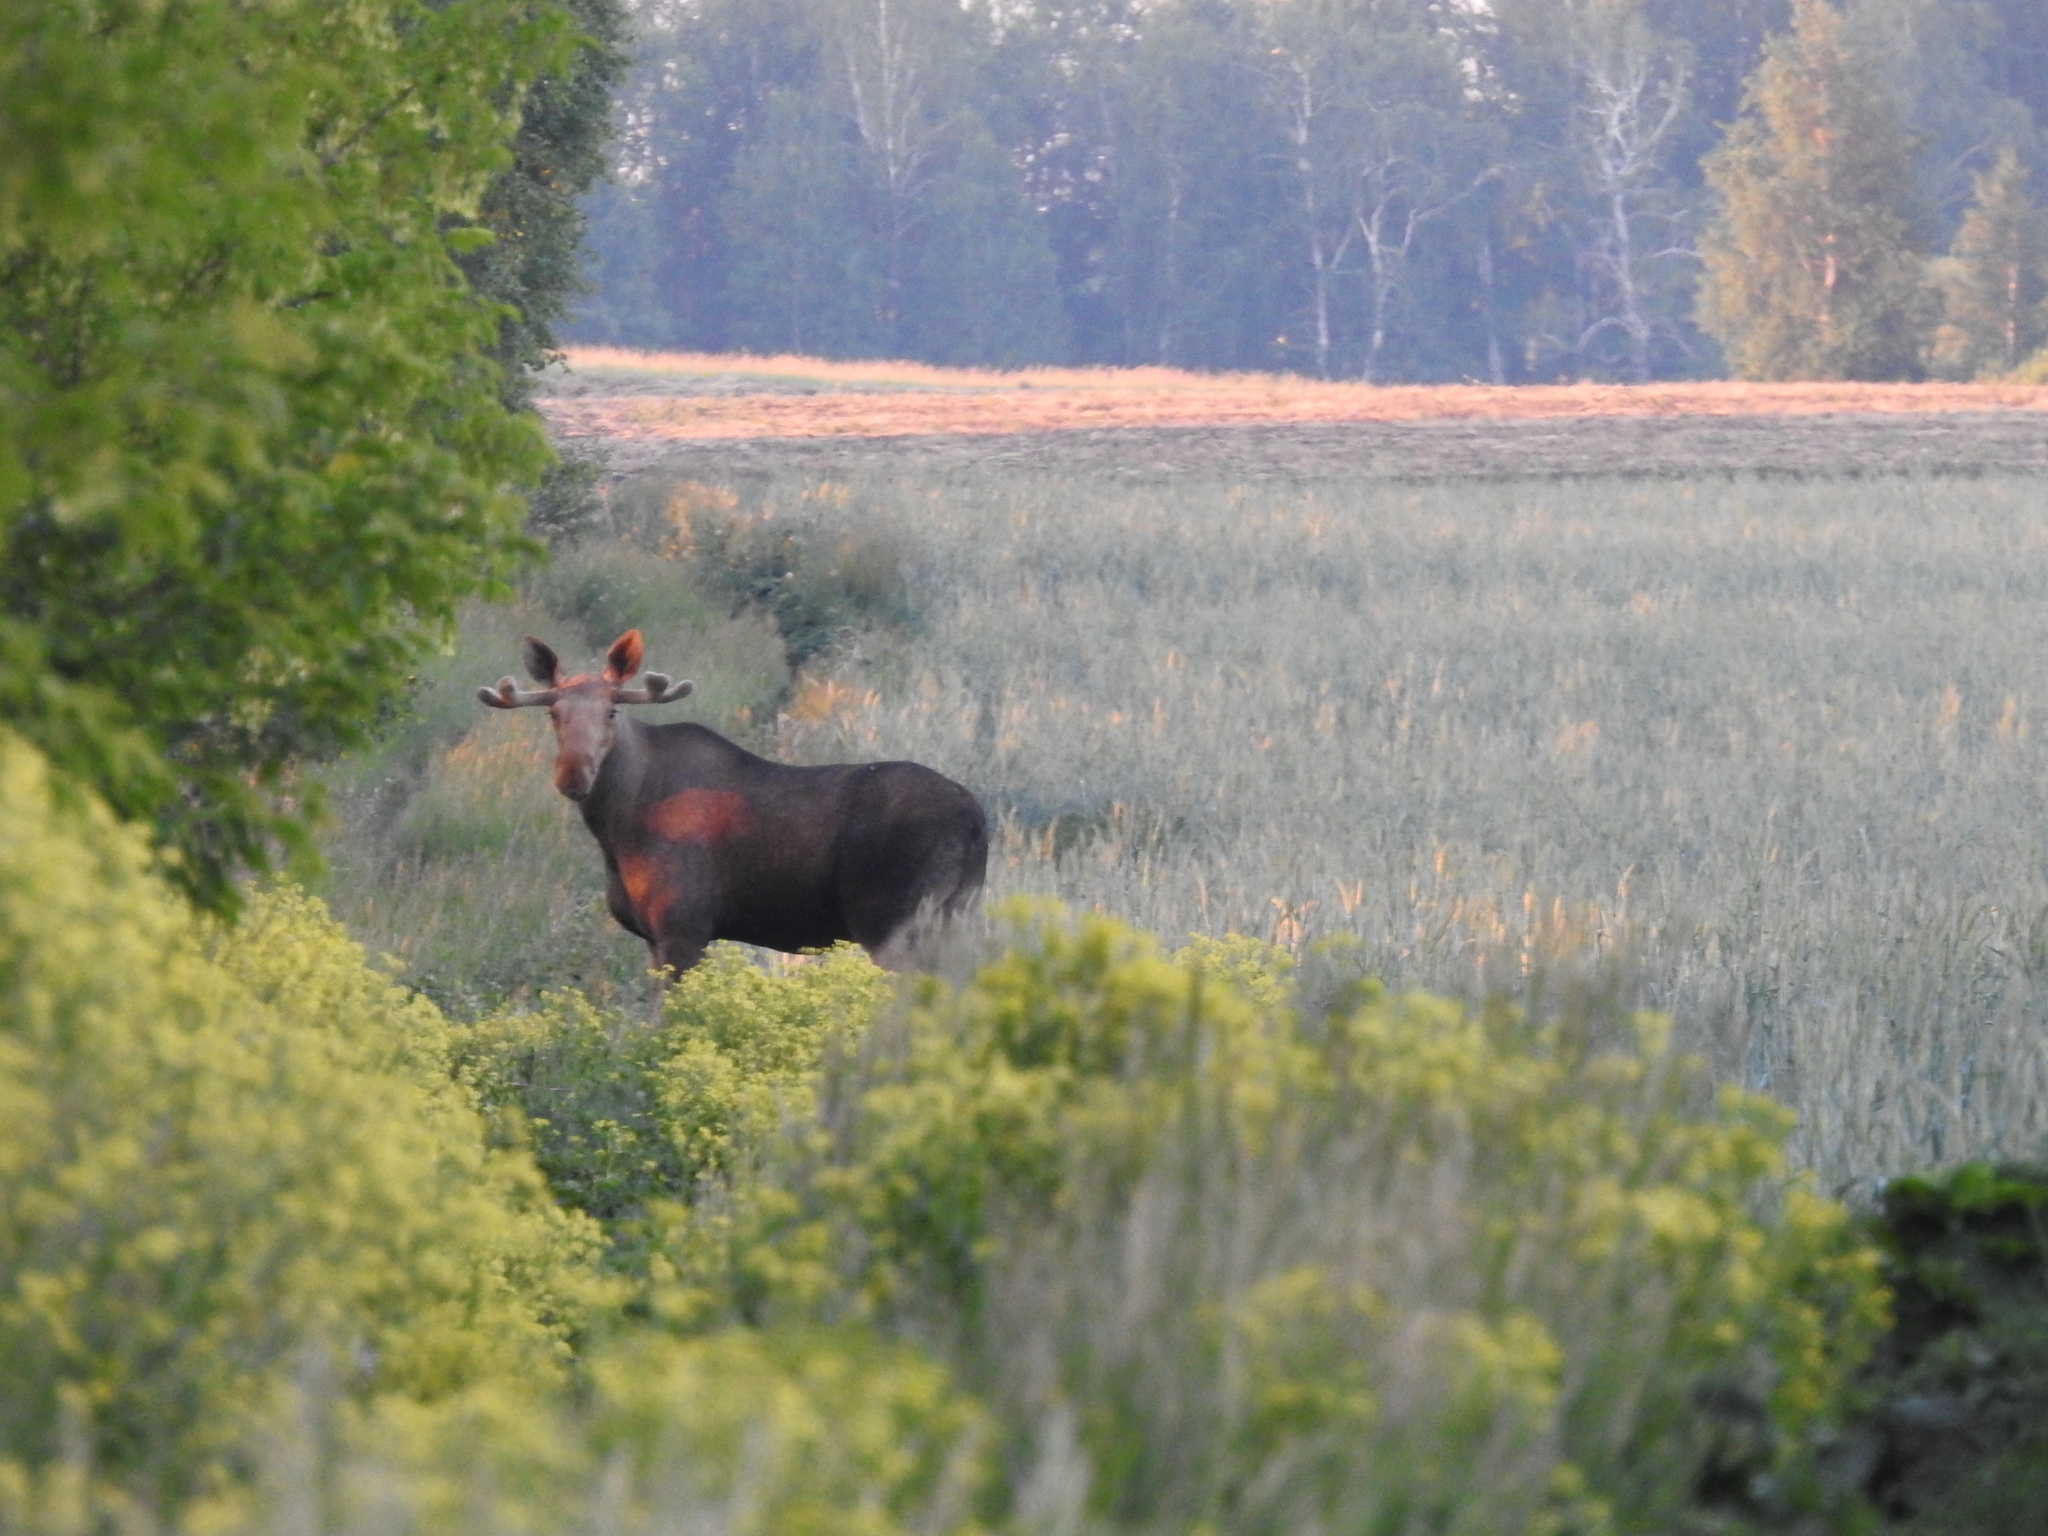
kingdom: Animalia
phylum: Chordata
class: Mammalia
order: Artiodactyla
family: Cervidae
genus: Alces
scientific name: Alces alces
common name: Moose
